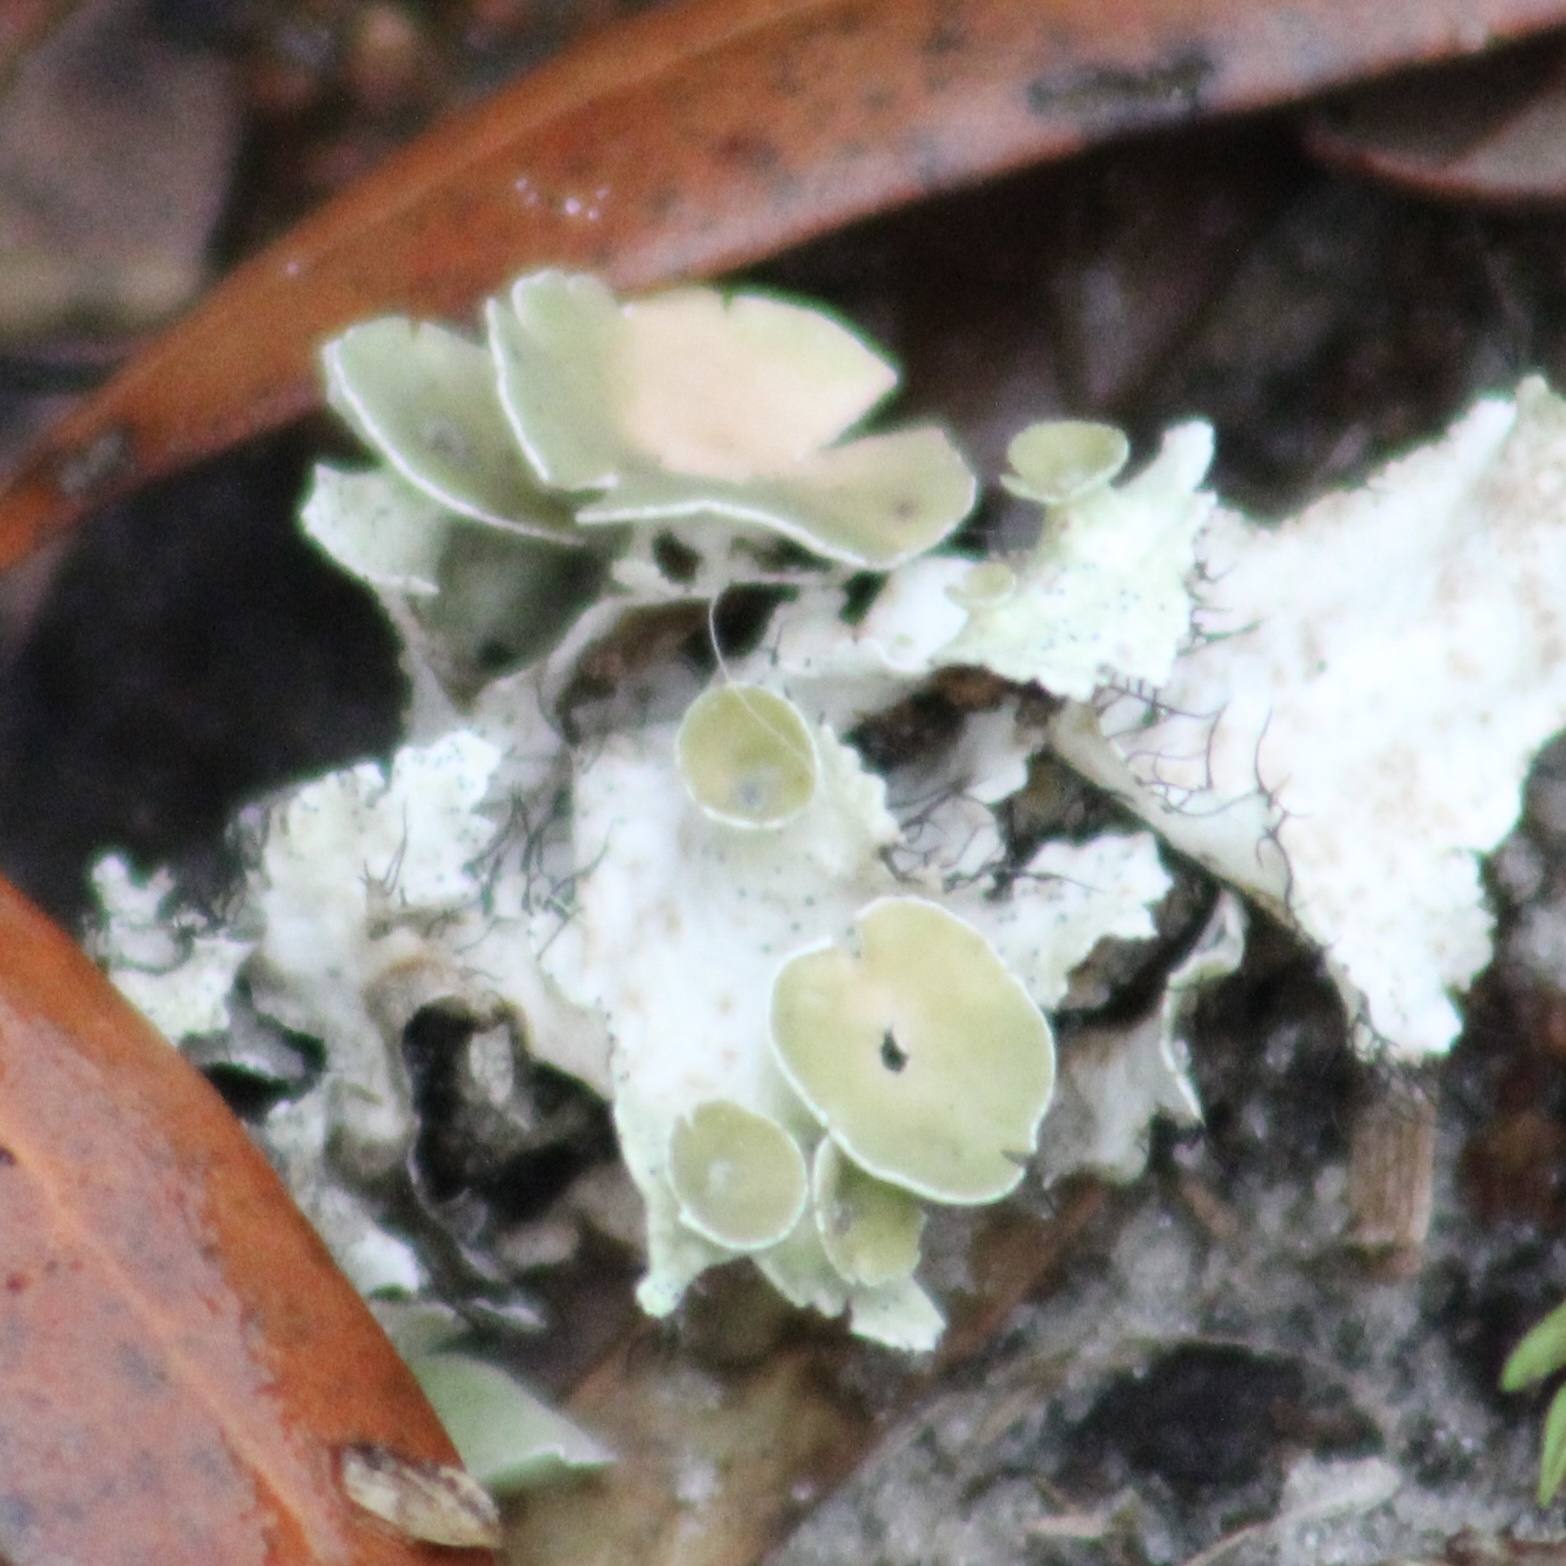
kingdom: Fungi
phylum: Ascomycota
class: Lecanoromycetes
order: Lecanorales
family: Parmeliaceae
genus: Parmotrema
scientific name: Parmotrema perforatum
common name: Perforated ruffle lichen
